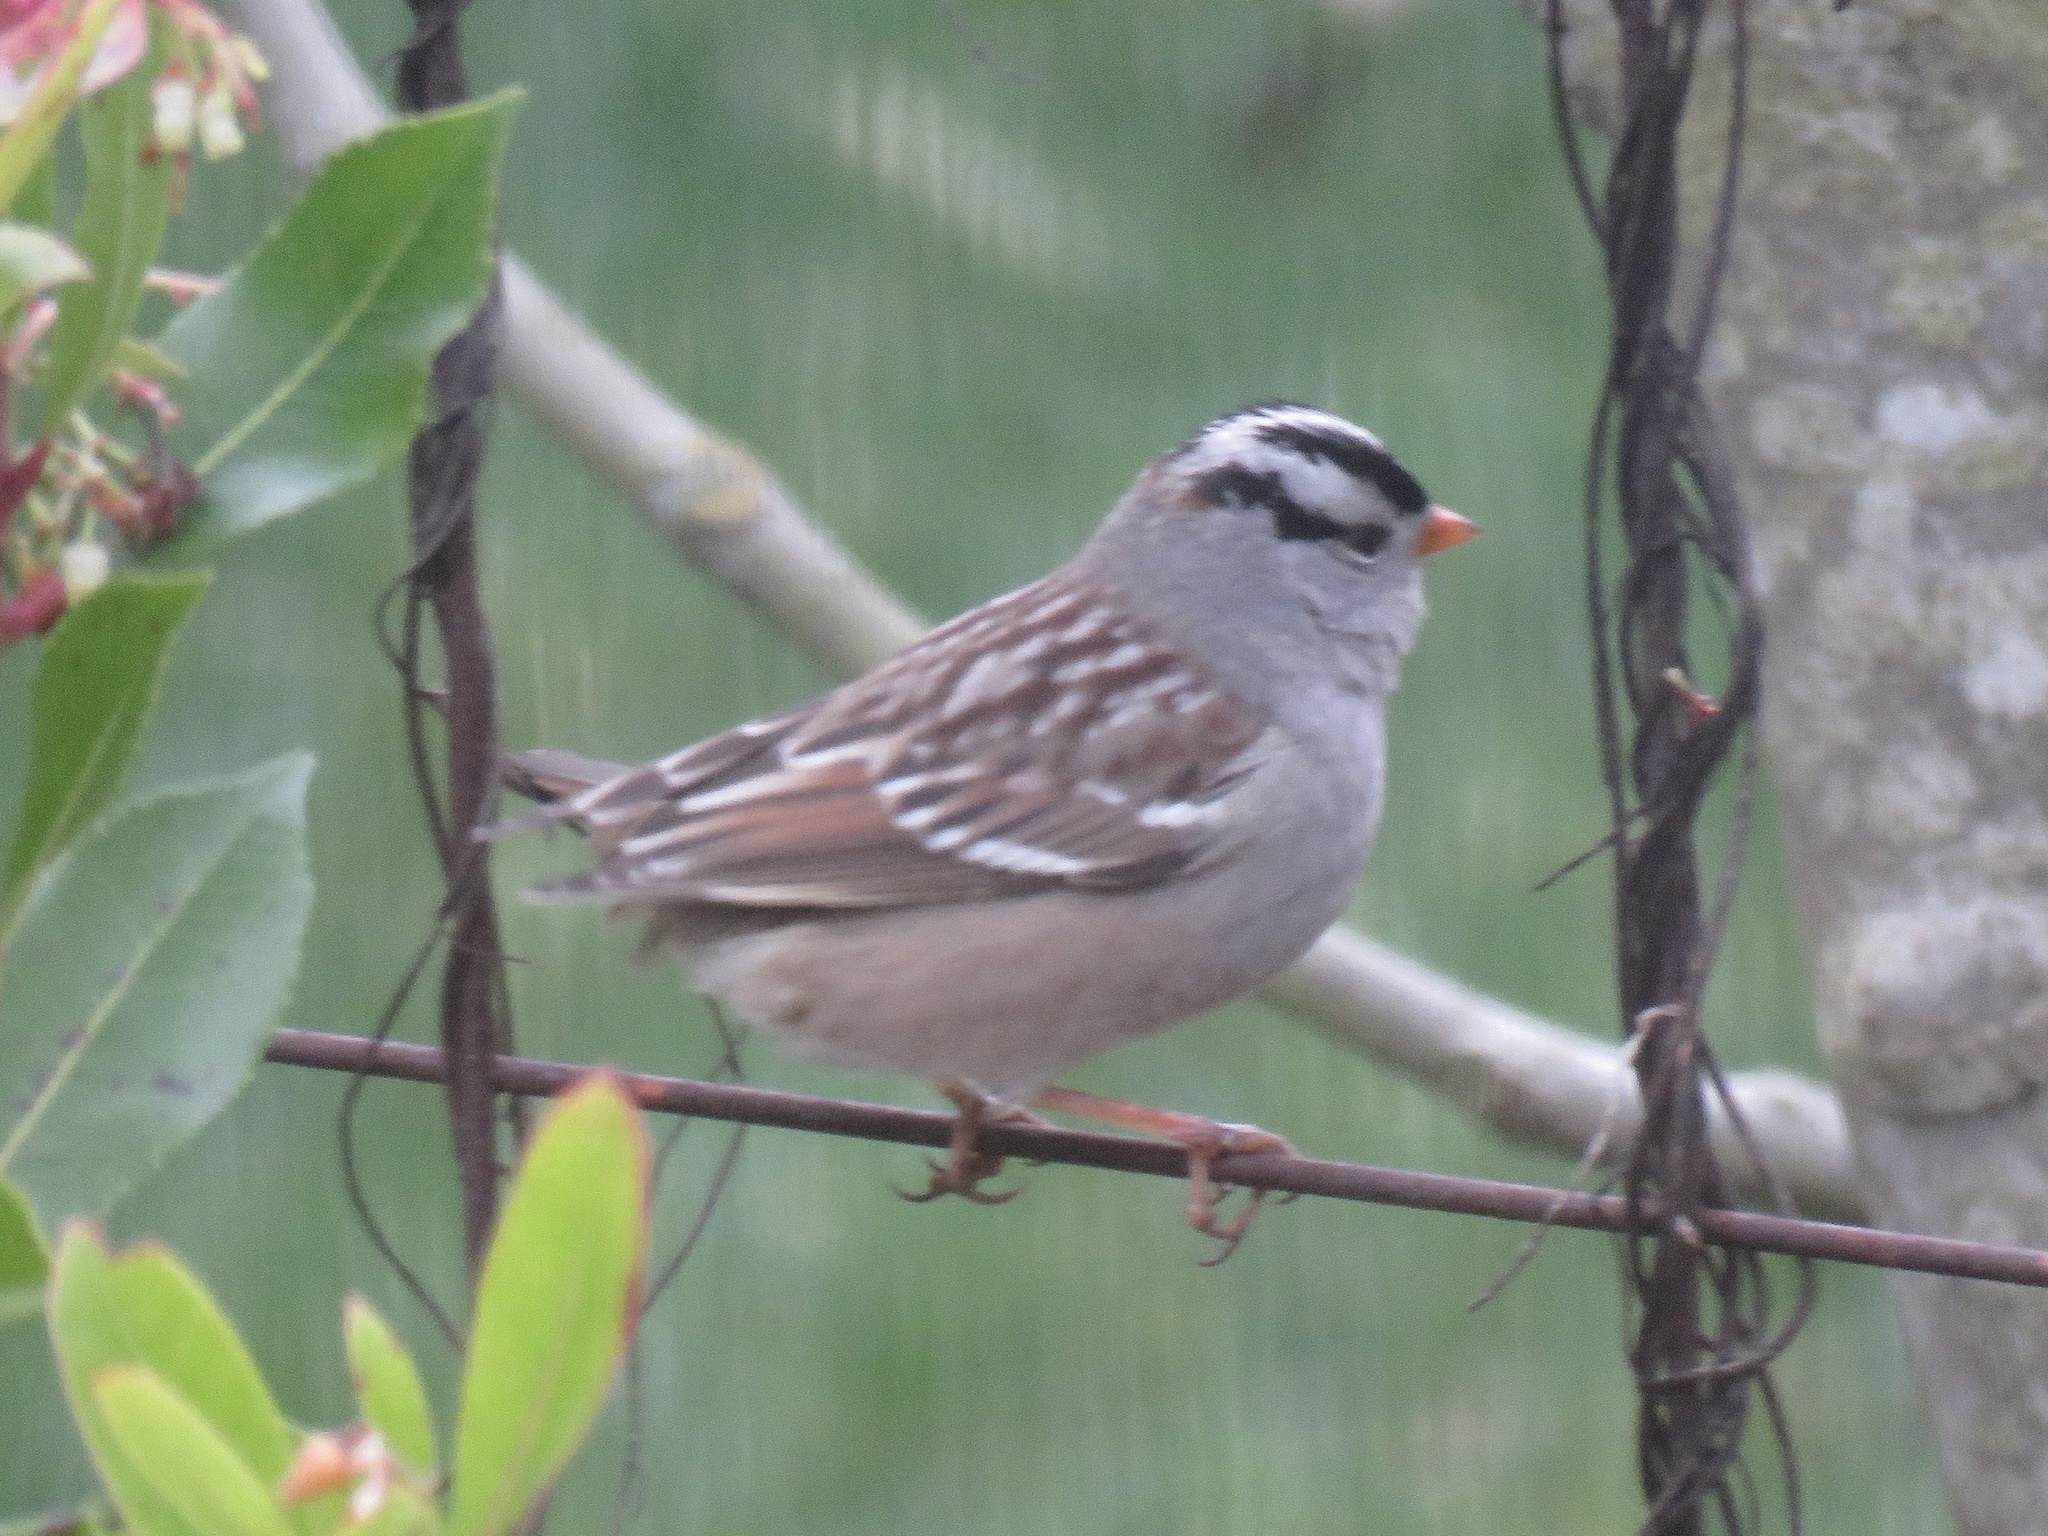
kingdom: Animalia
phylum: Chordata
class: Aves
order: Passeriformes
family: Passerellidae
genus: Zonotrichia
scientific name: Zonotrichia leucophrys
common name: White-crowned sparrow
